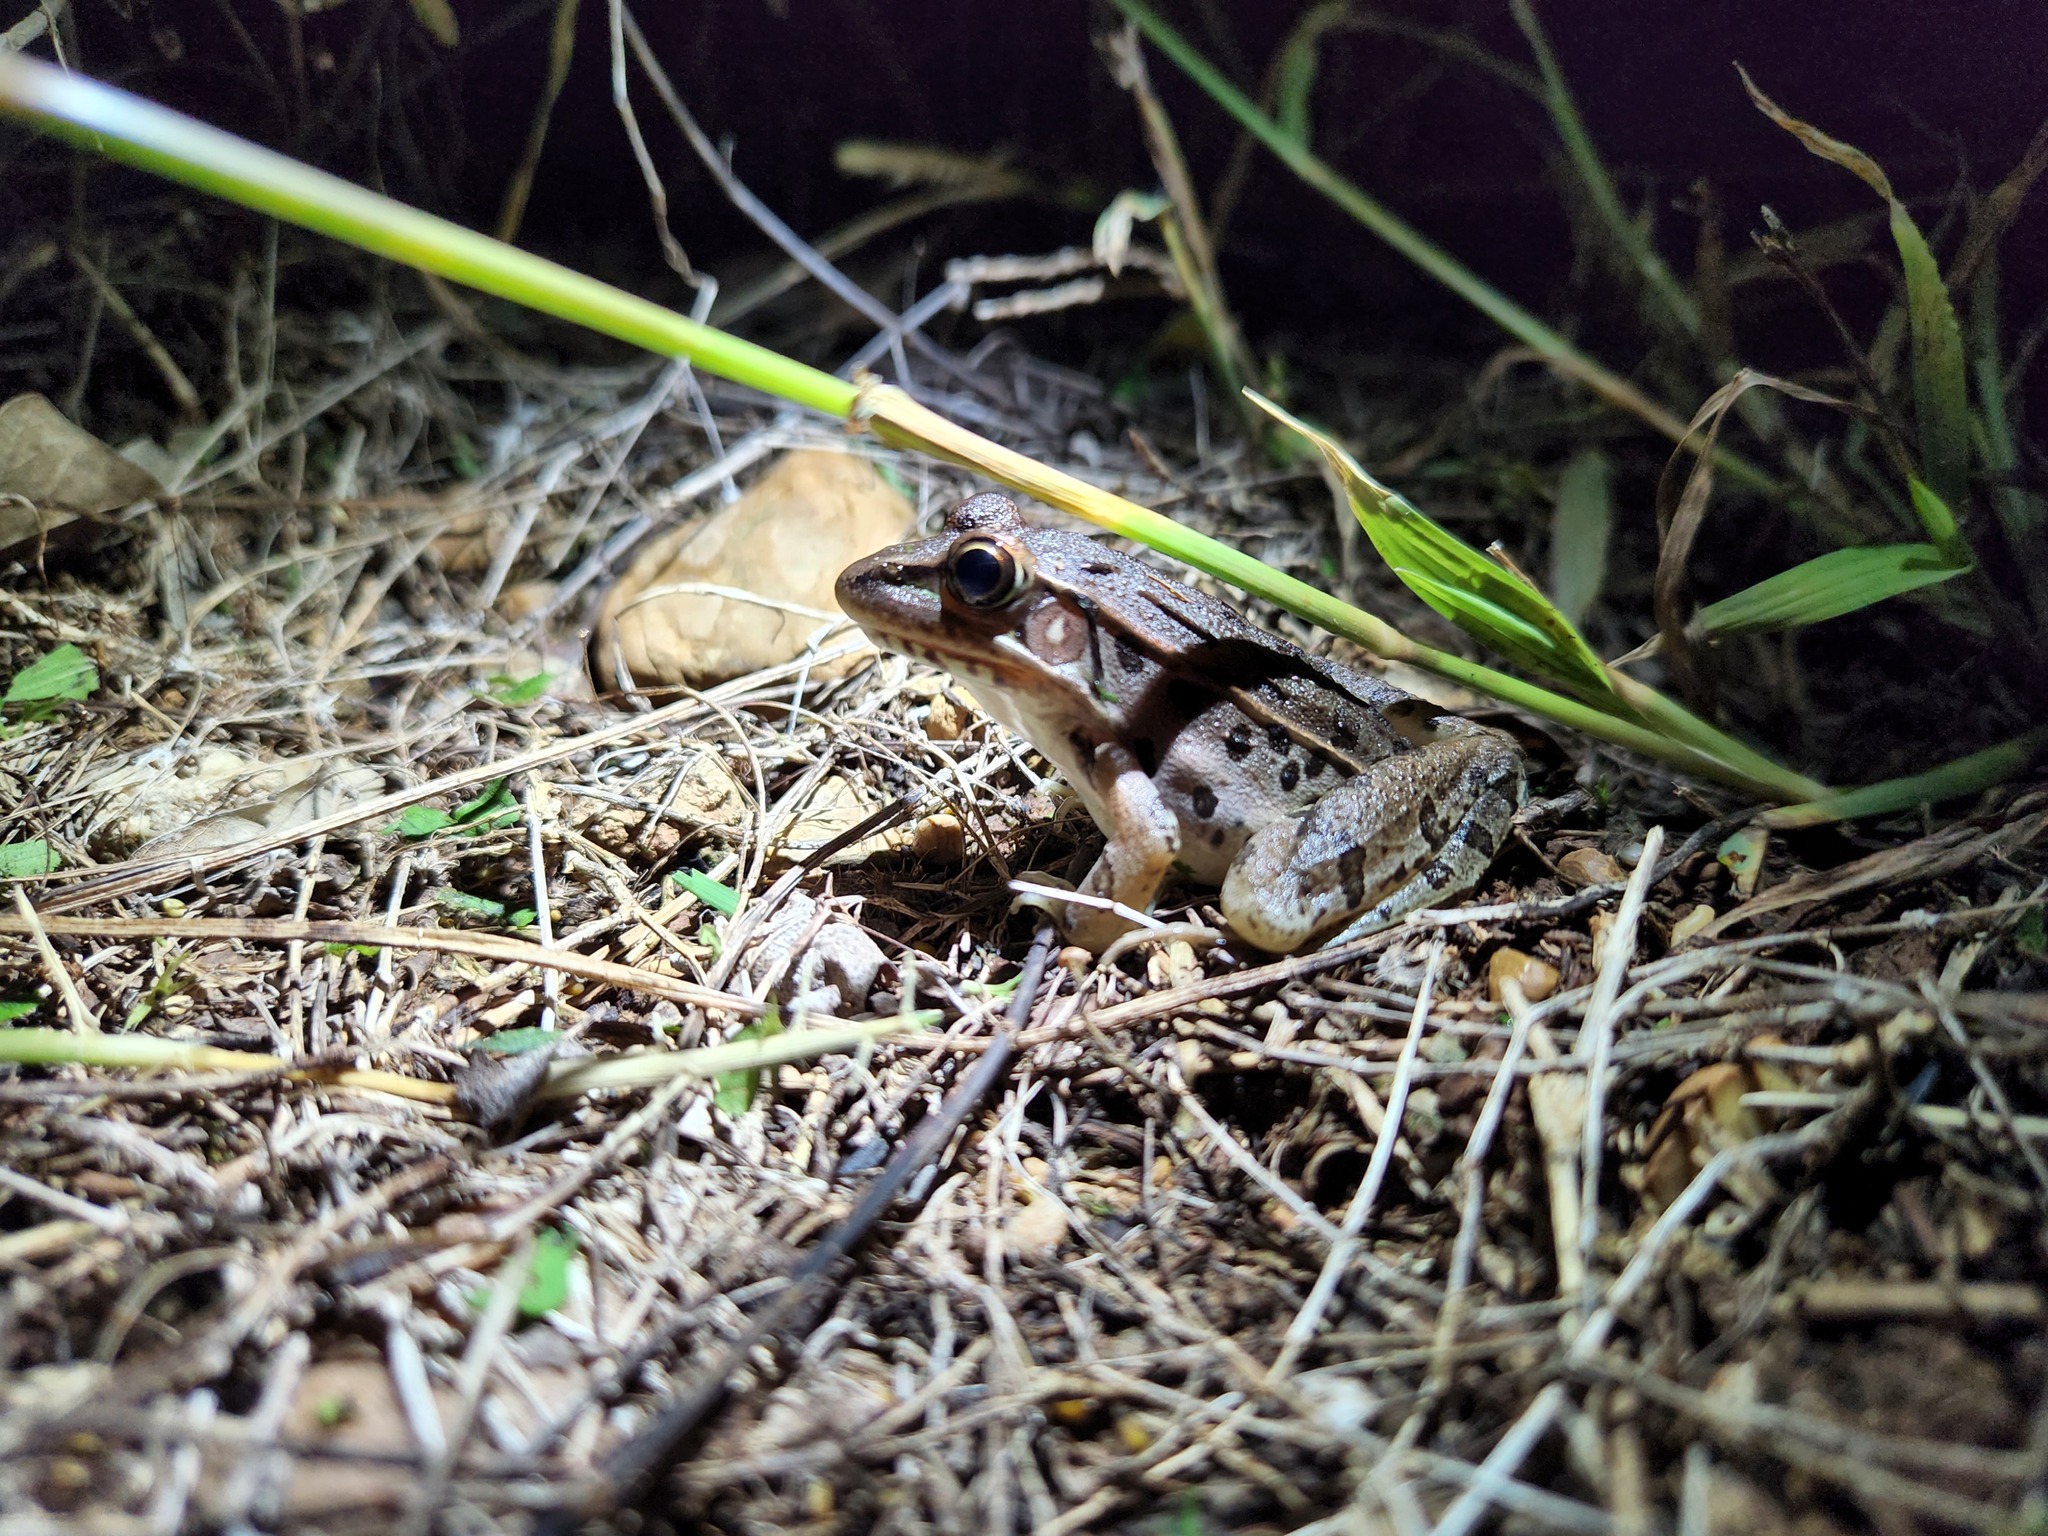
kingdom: Animalia
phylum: Chordata
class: Amphibia
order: Anura
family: Ranidae
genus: Lithobates
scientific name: Lithobates sphenocephalus
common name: Southern leopard frog
